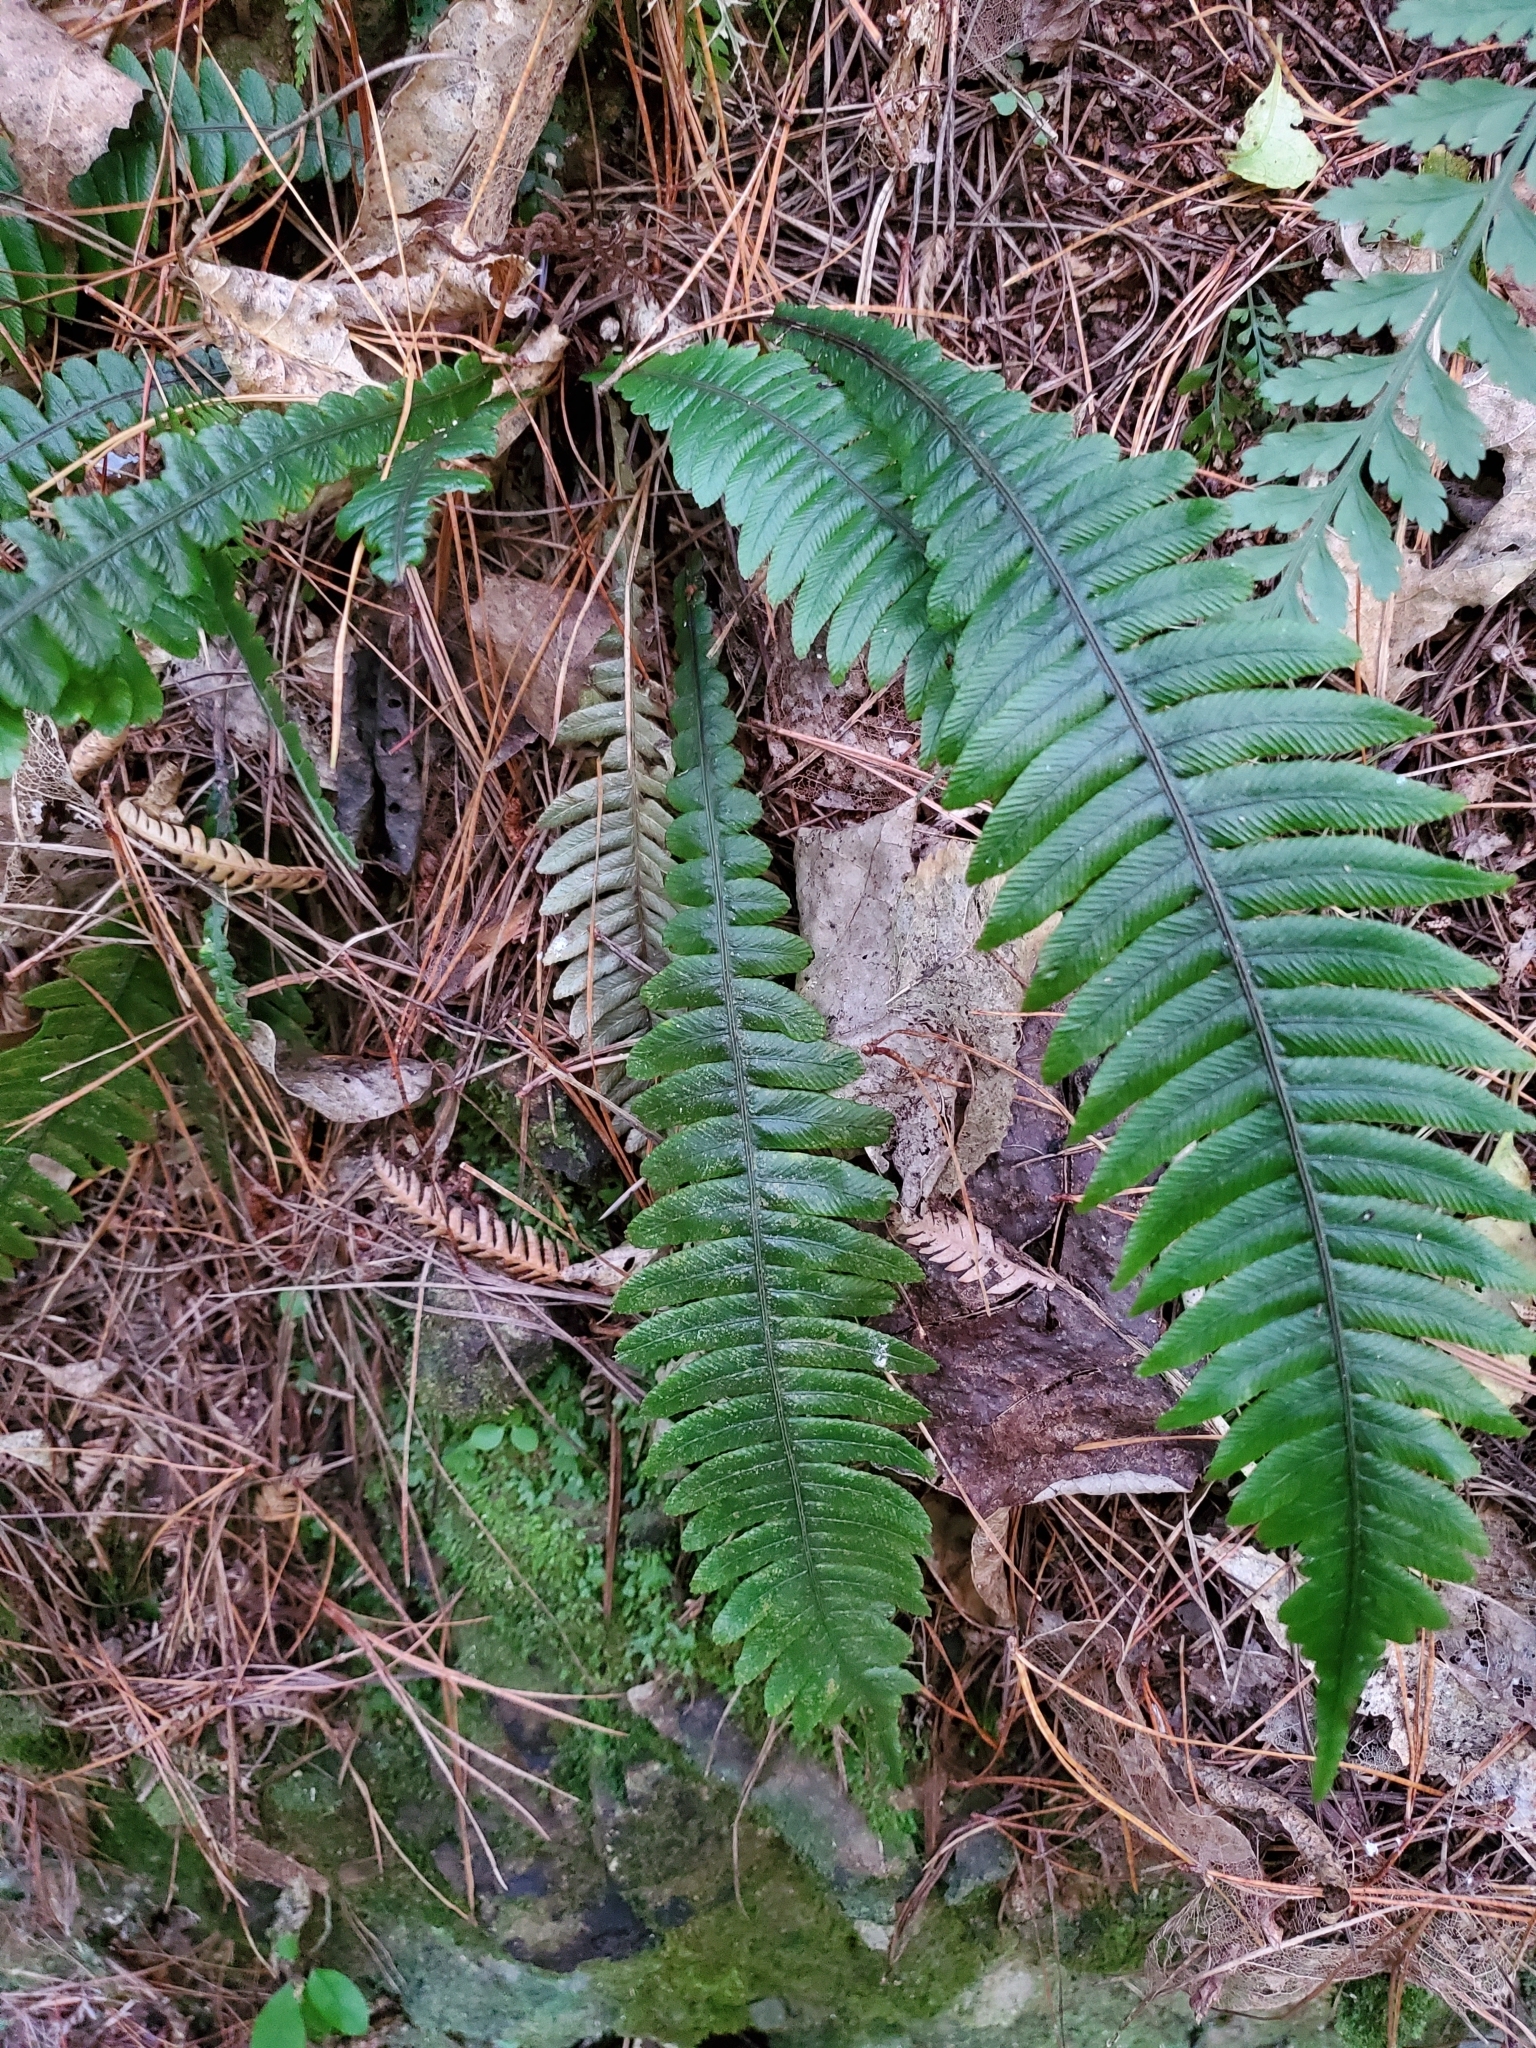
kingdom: Plantae
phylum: Tracheophyta
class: Polypodiopsida
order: Polypodiales
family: Blechnaceae
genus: Austroblechnum
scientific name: Austroblechnum lanceolatum
